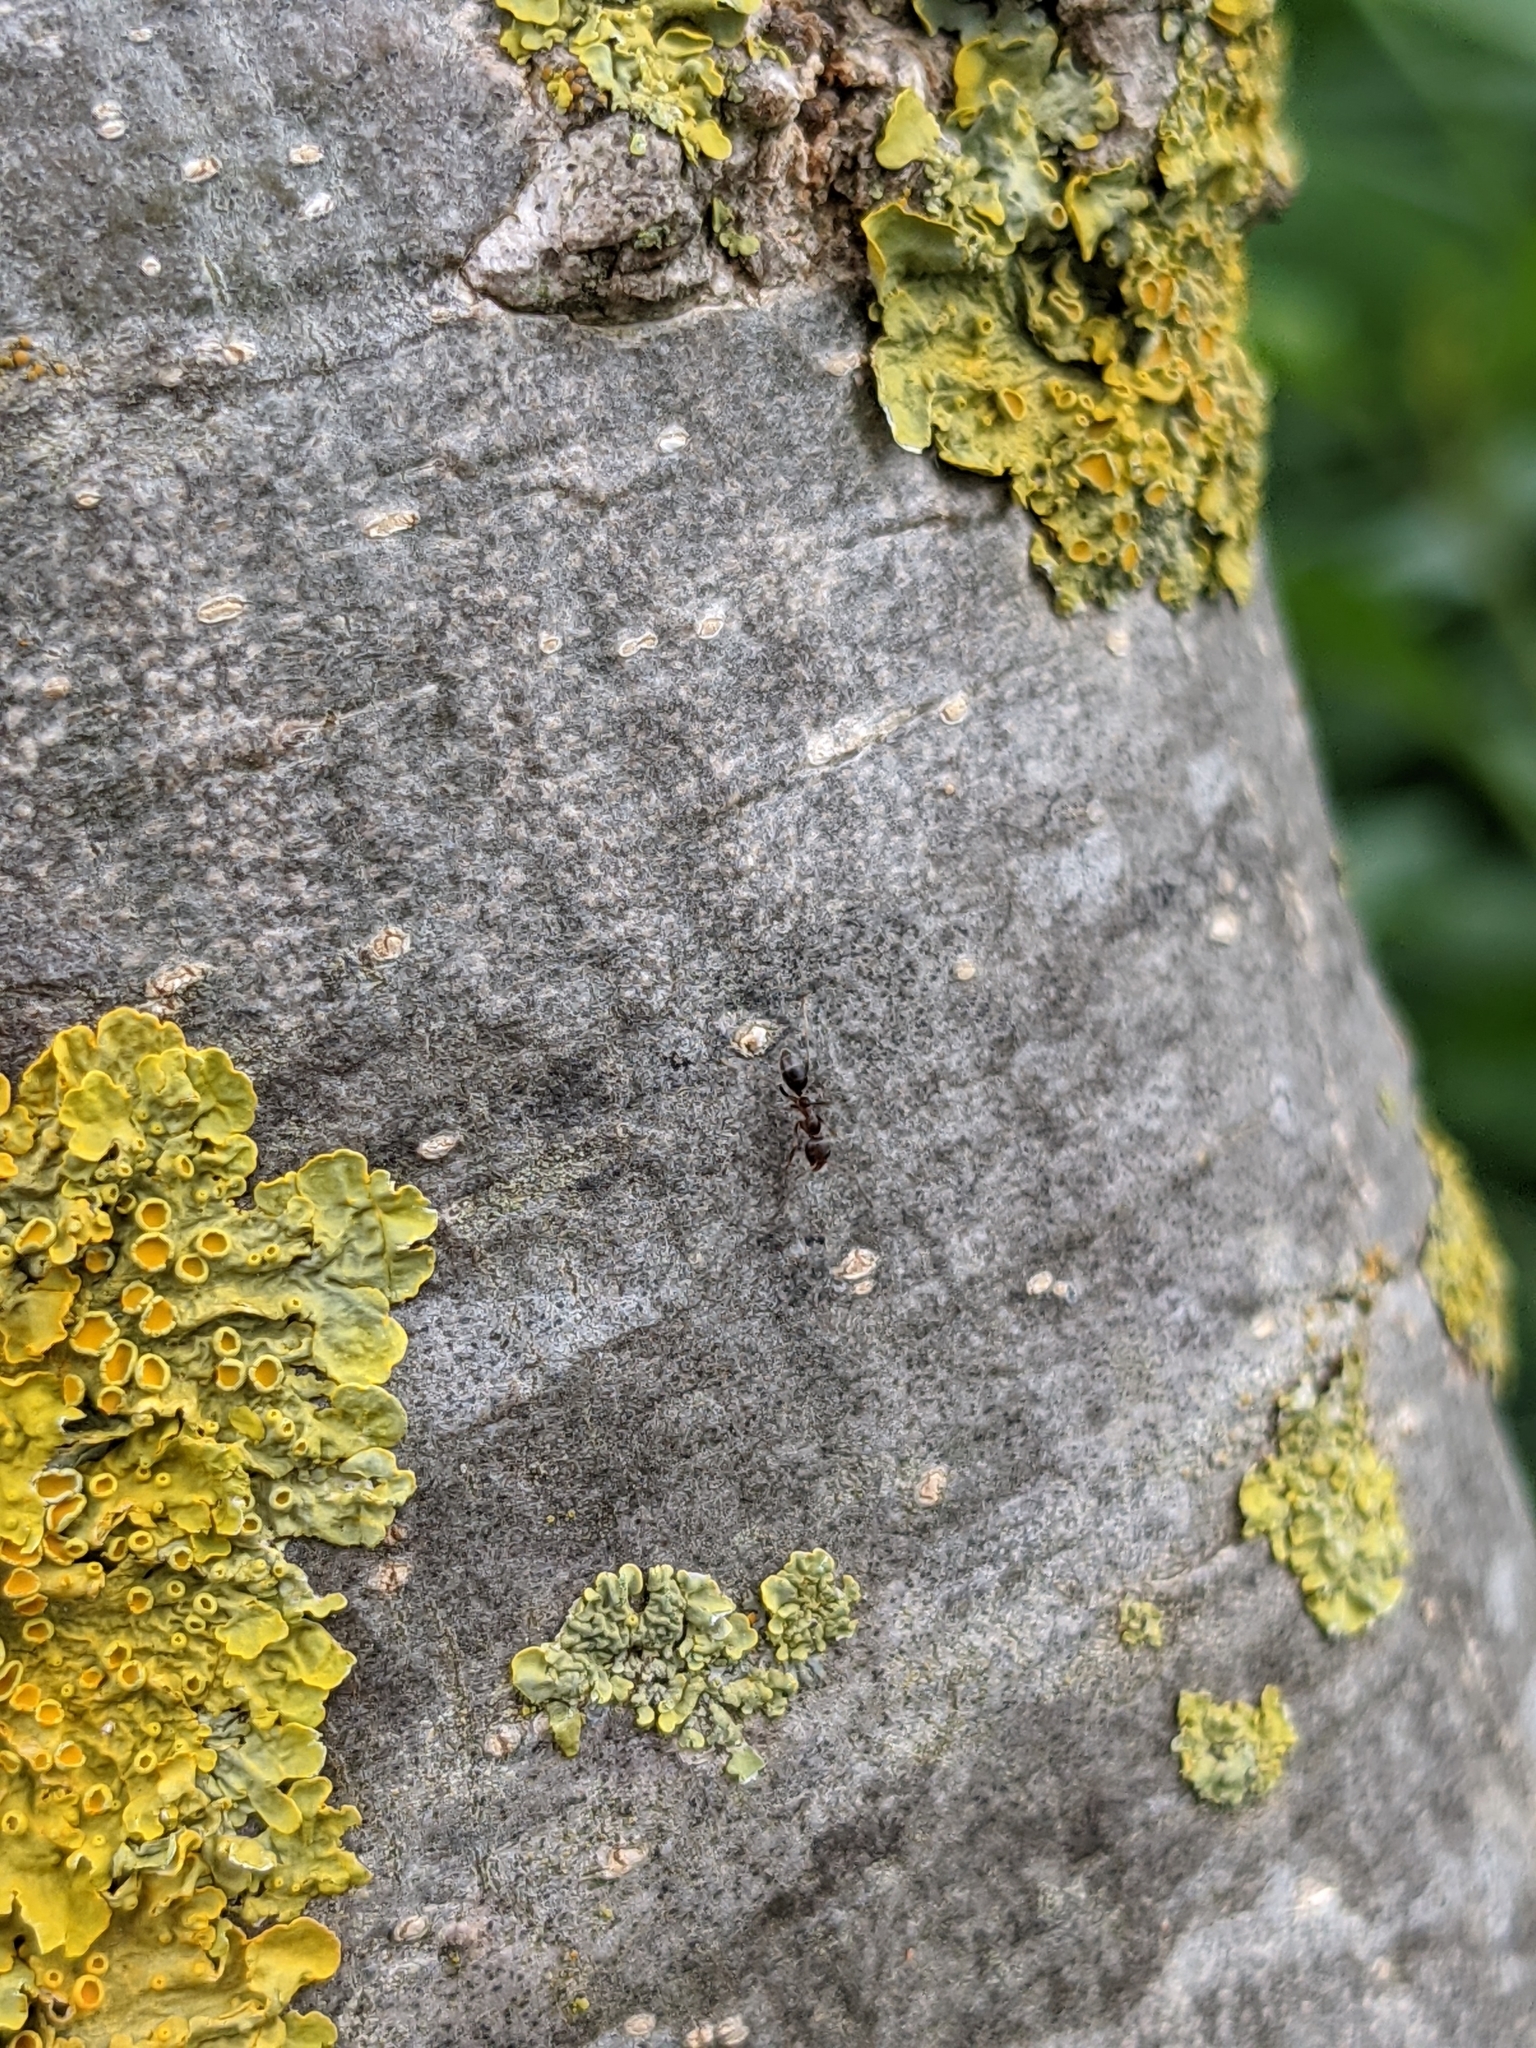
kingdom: Animalia
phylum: Arthropoda
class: Insecta
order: Hymenoptera
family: Formicidae
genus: Linepithema
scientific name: Linepithema humile
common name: Argentine ant
